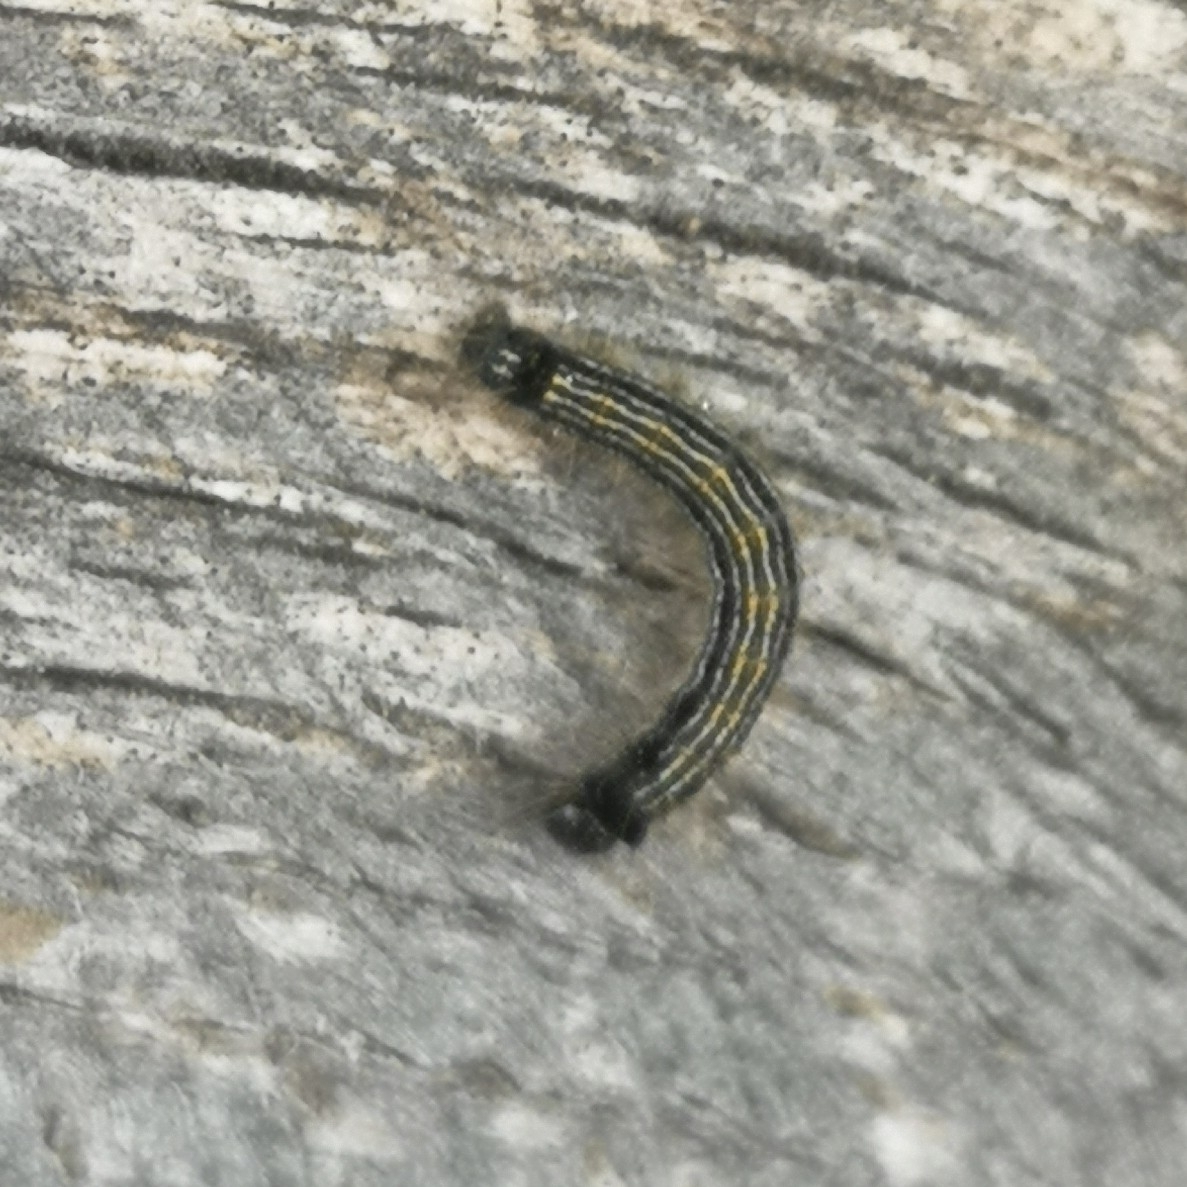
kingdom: Animalia
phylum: Arthropoda
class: Insecta
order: Lepidoptera
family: Lasiocampidae
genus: Malacosoma
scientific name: Malacosoma neustria
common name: The lackey
